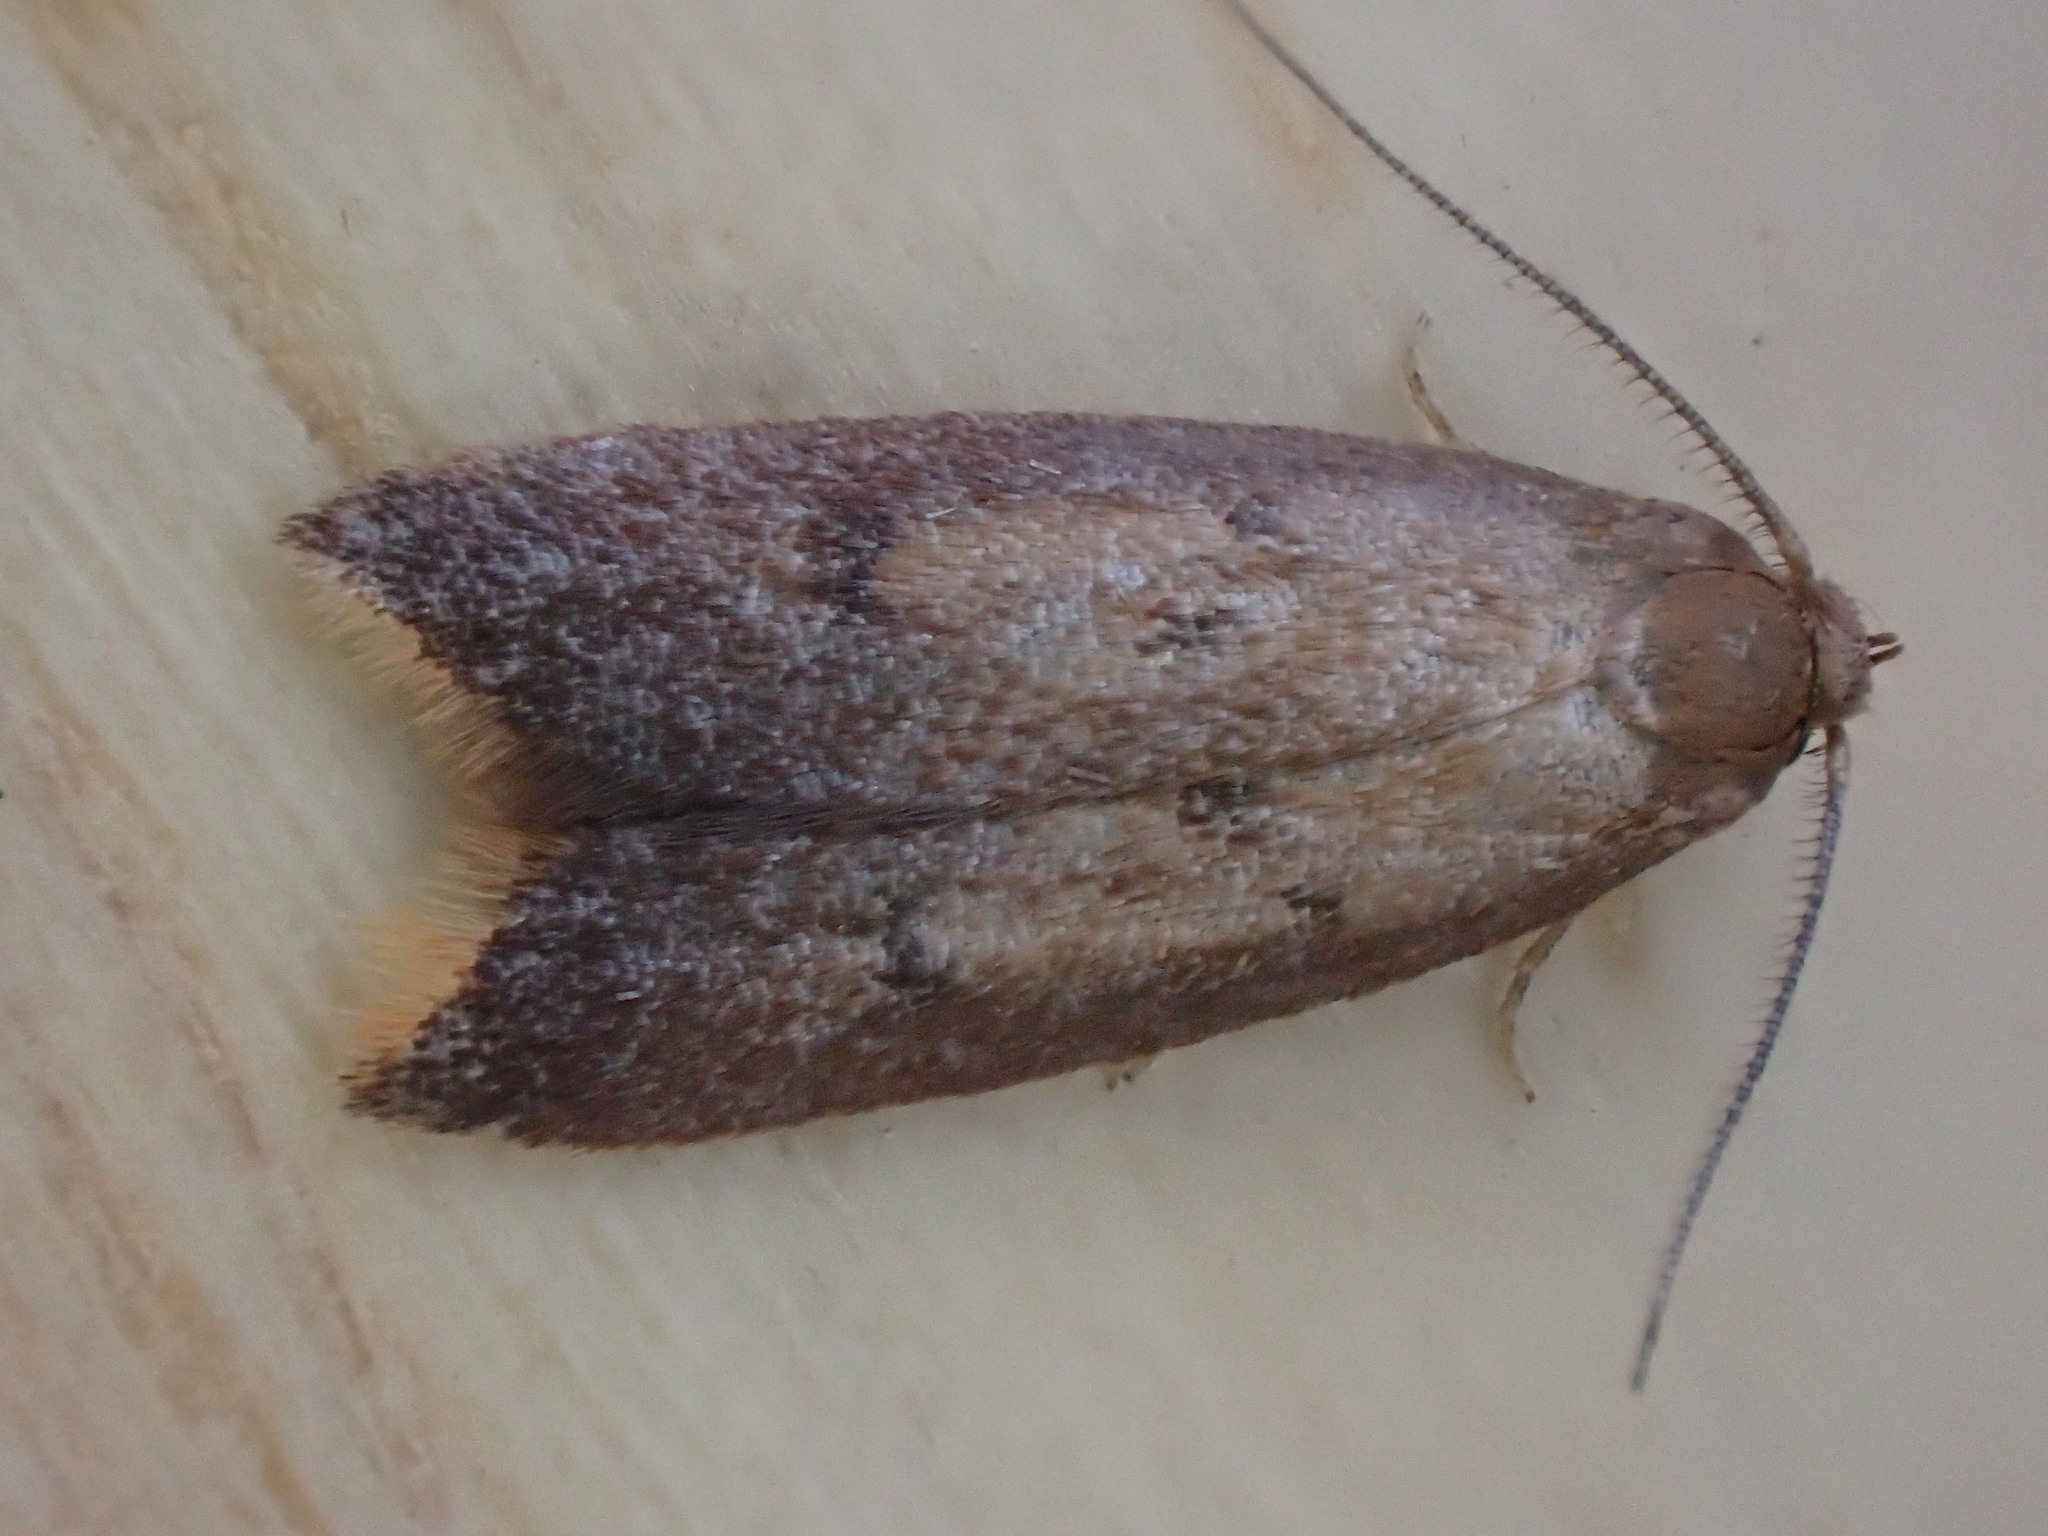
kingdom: Animalia
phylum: Arthropoda
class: Insecta
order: Lepidoptera
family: Oecophoridae
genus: Tachystola
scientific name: Tachystola acroxantha
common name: Ruddy streak
